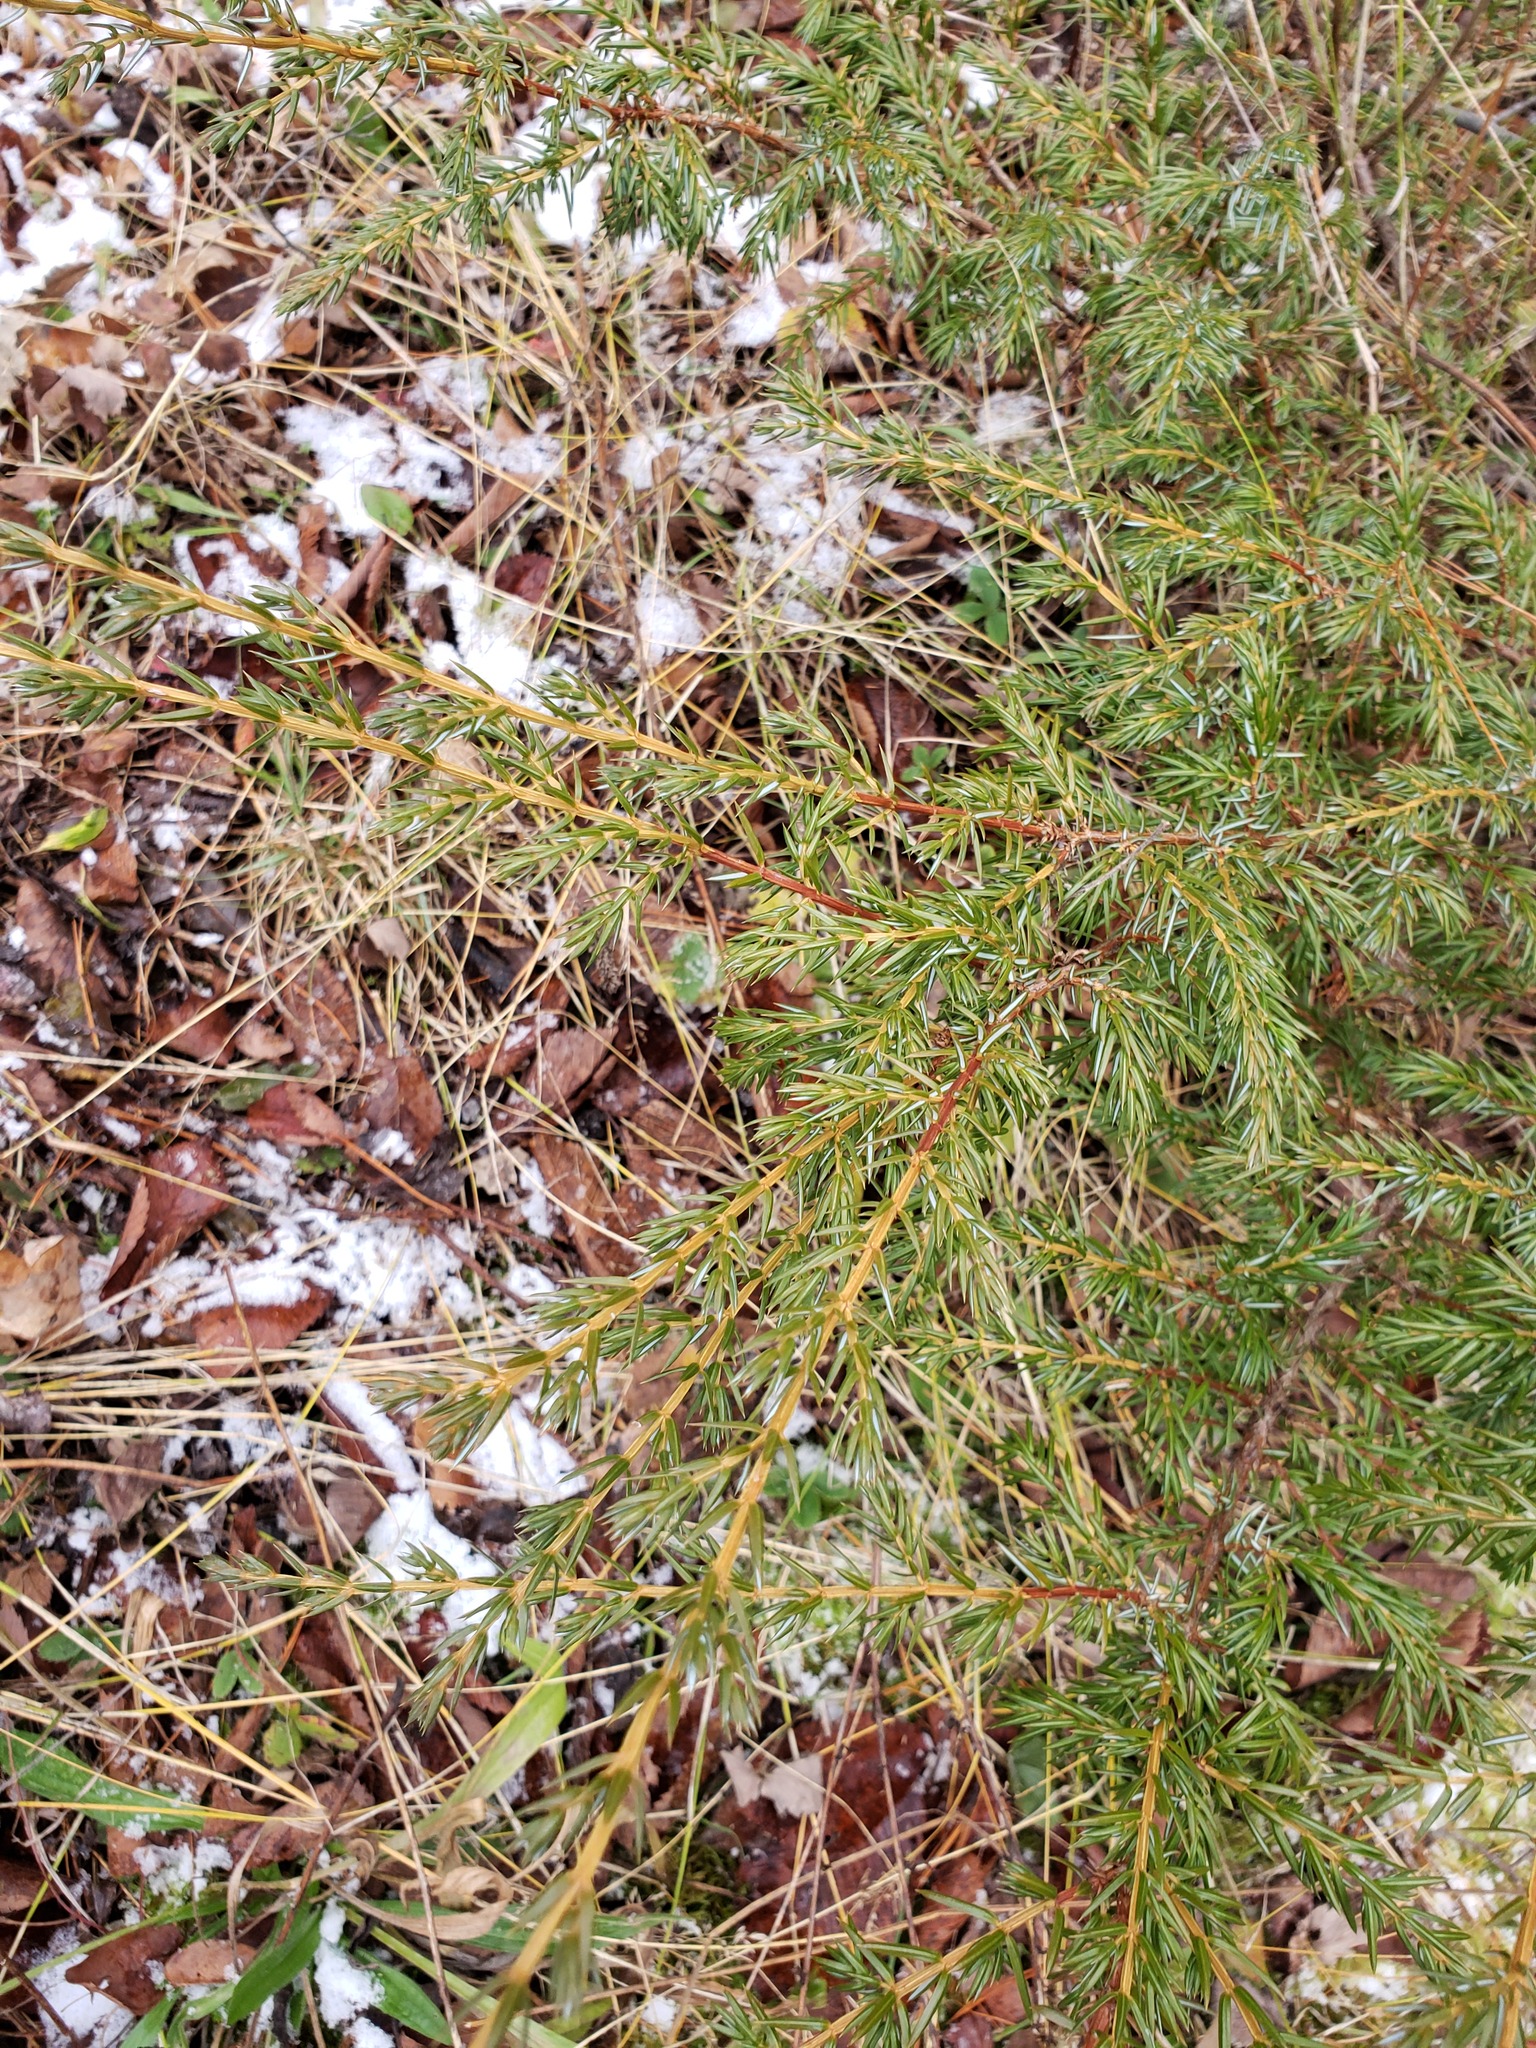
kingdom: Plantae
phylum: Tracheophyta
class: Pinopsida
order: Pinales
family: Cupressaceae
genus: Juniperus
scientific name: Juniperus communis
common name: Common juniper
